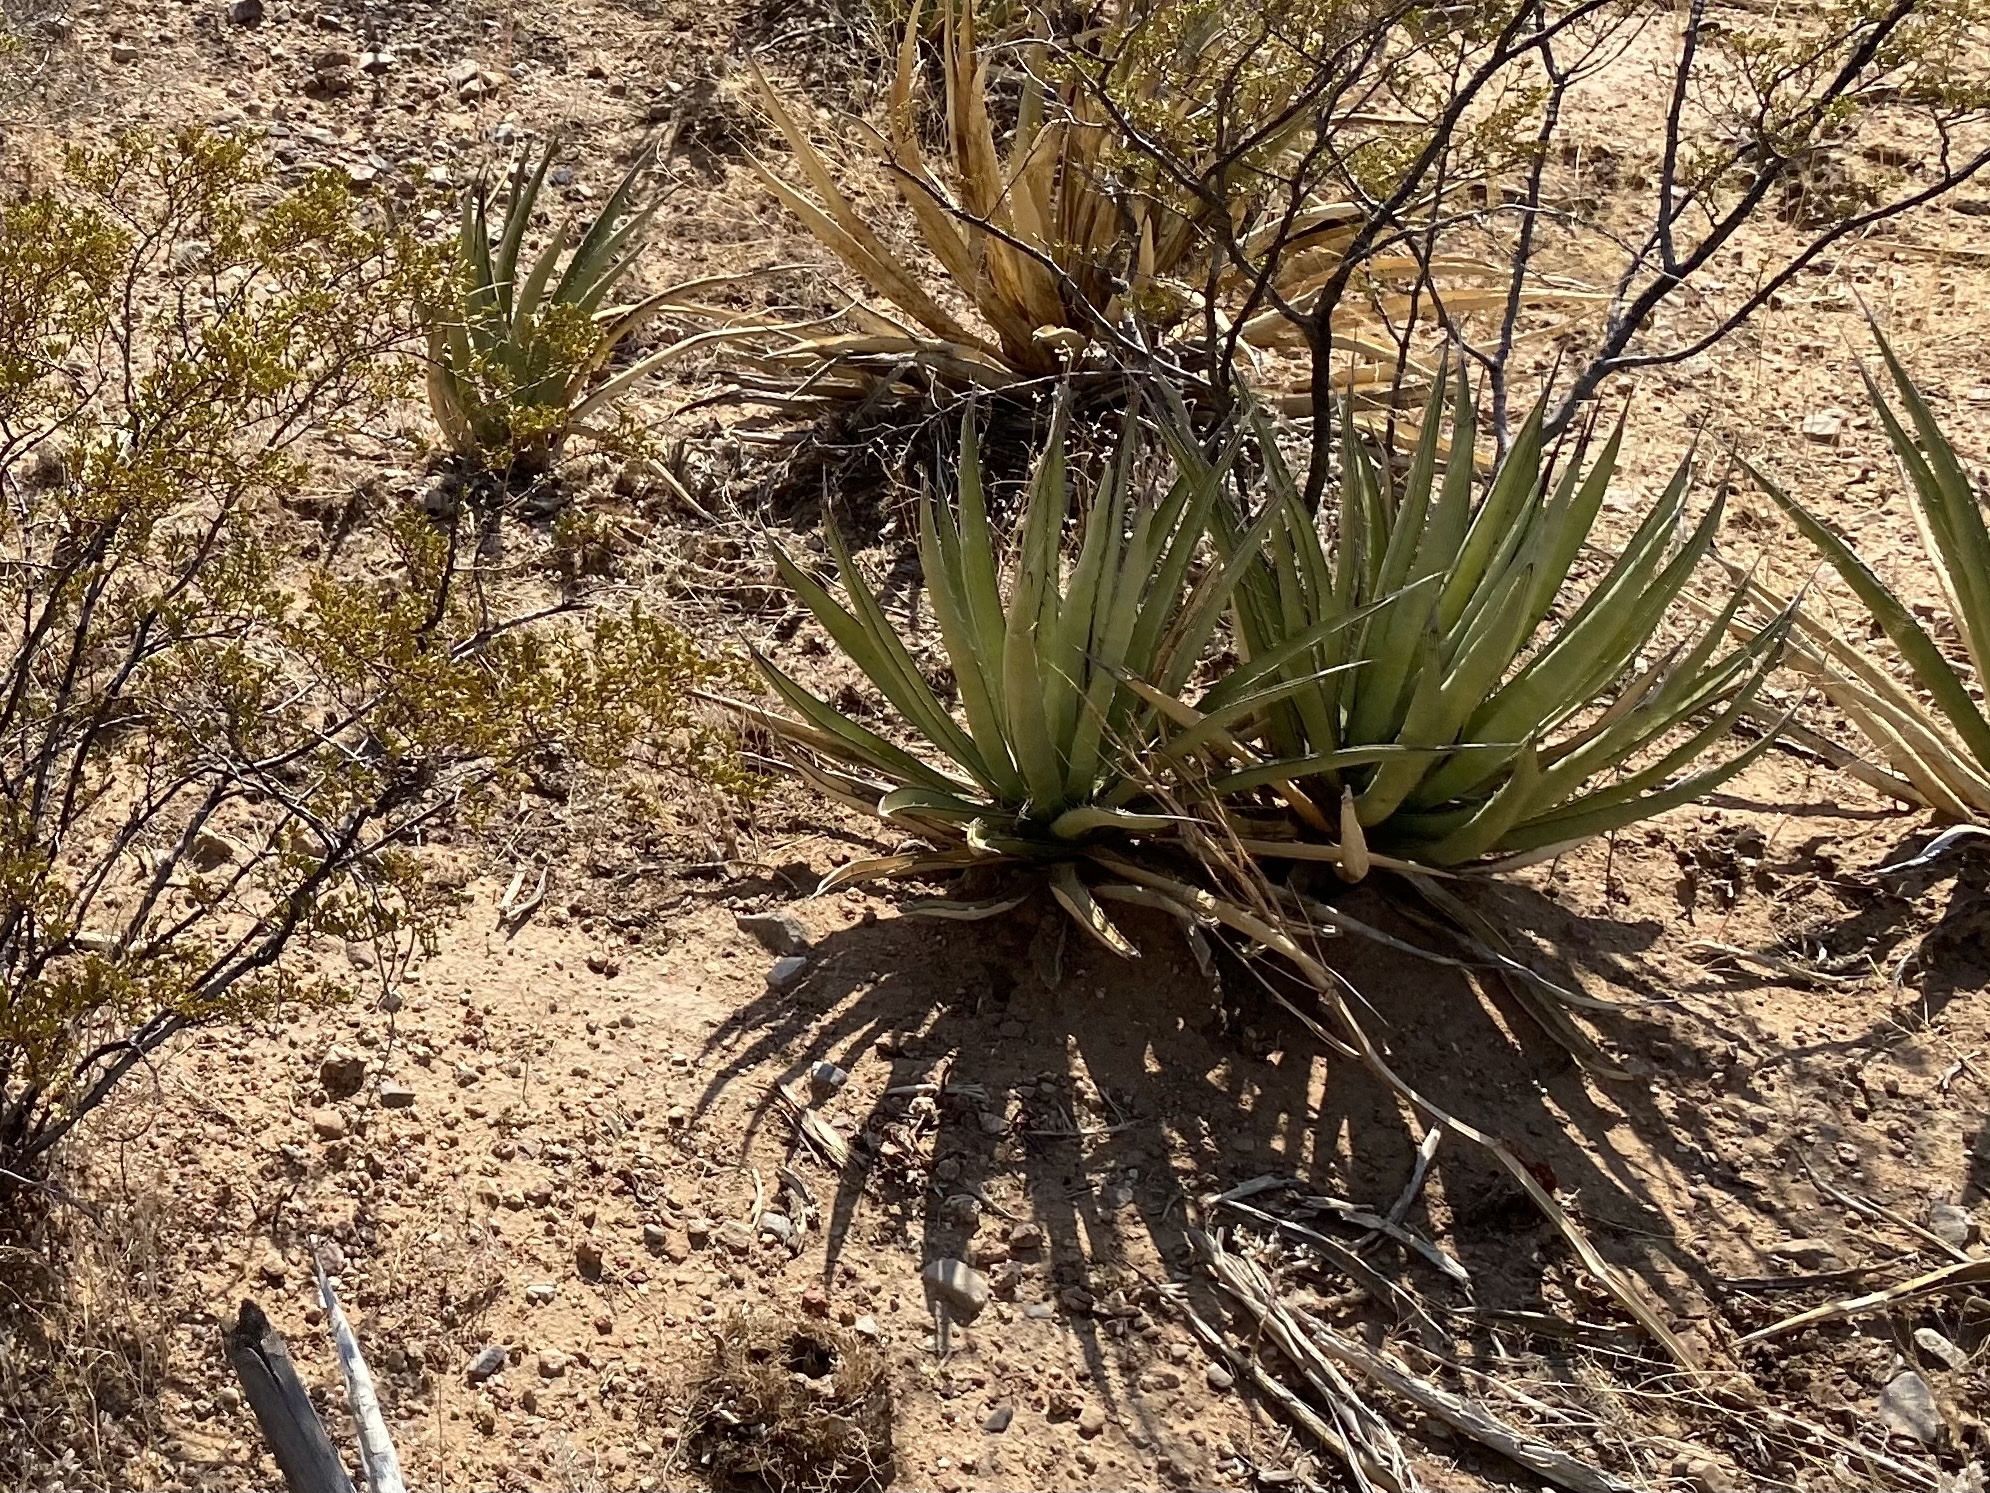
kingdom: Plantae
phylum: Tracheophyta
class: Liliopsida
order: Asparagales
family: Asparagaceae
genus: Agave
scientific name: Agave lechuguilla
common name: Lecheguilla agave
